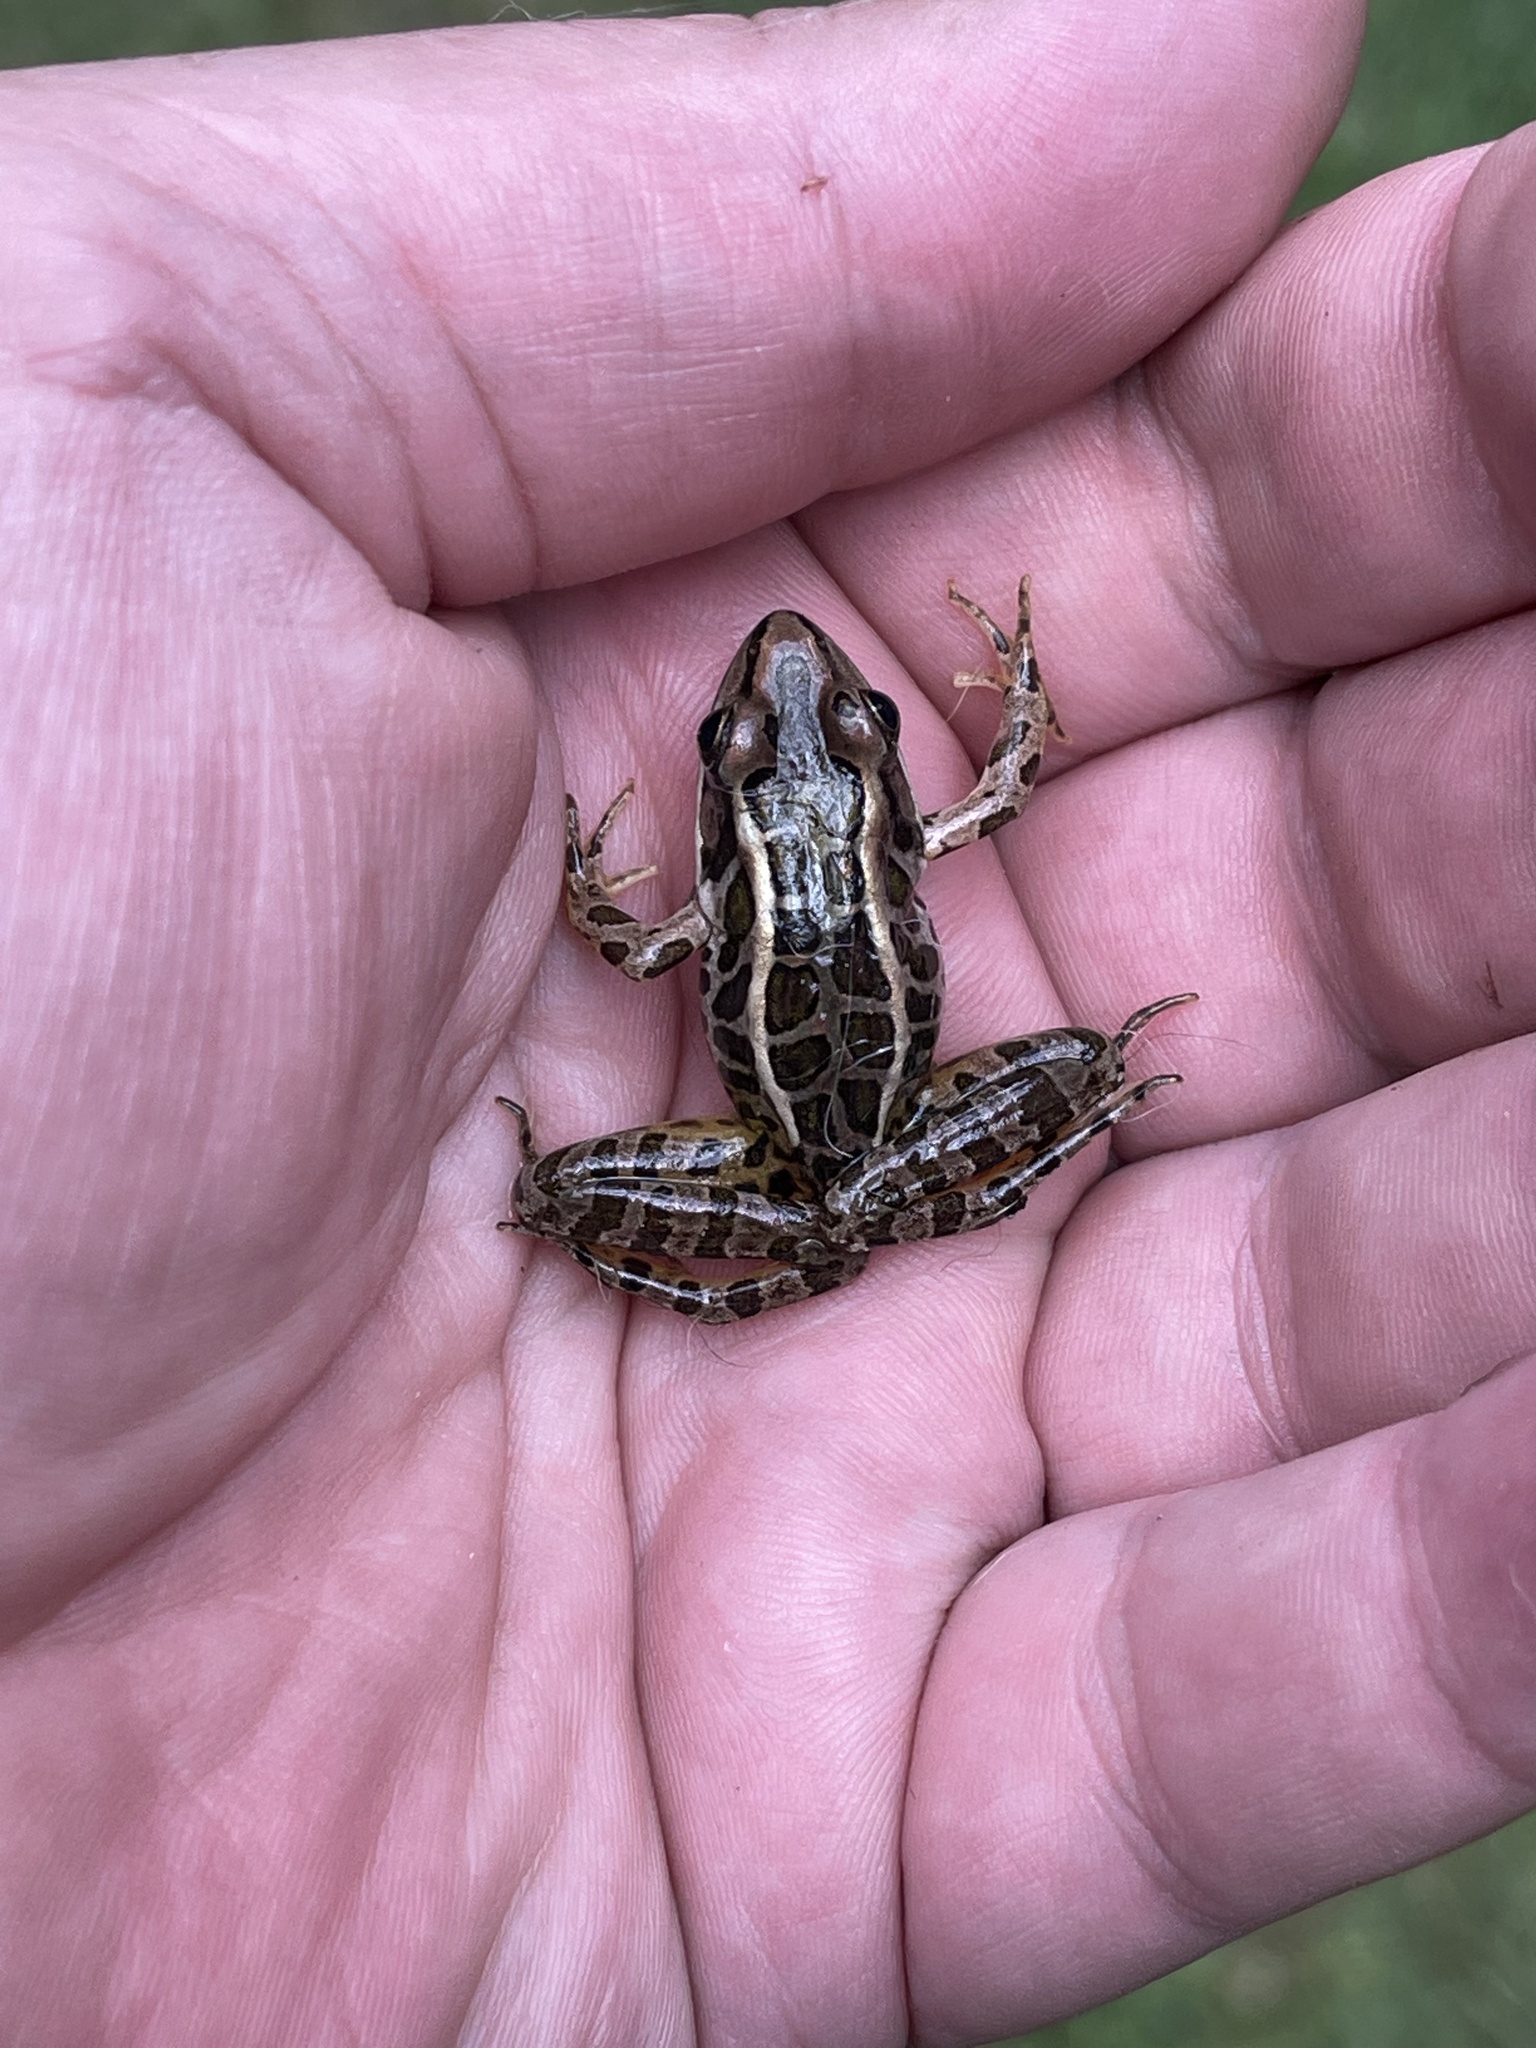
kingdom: Animalia
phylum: Chordata
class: Amphibia
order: Anura
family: Ranidae
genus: Lithobates
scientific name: Lithobates palustris
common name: Pickerel frog
